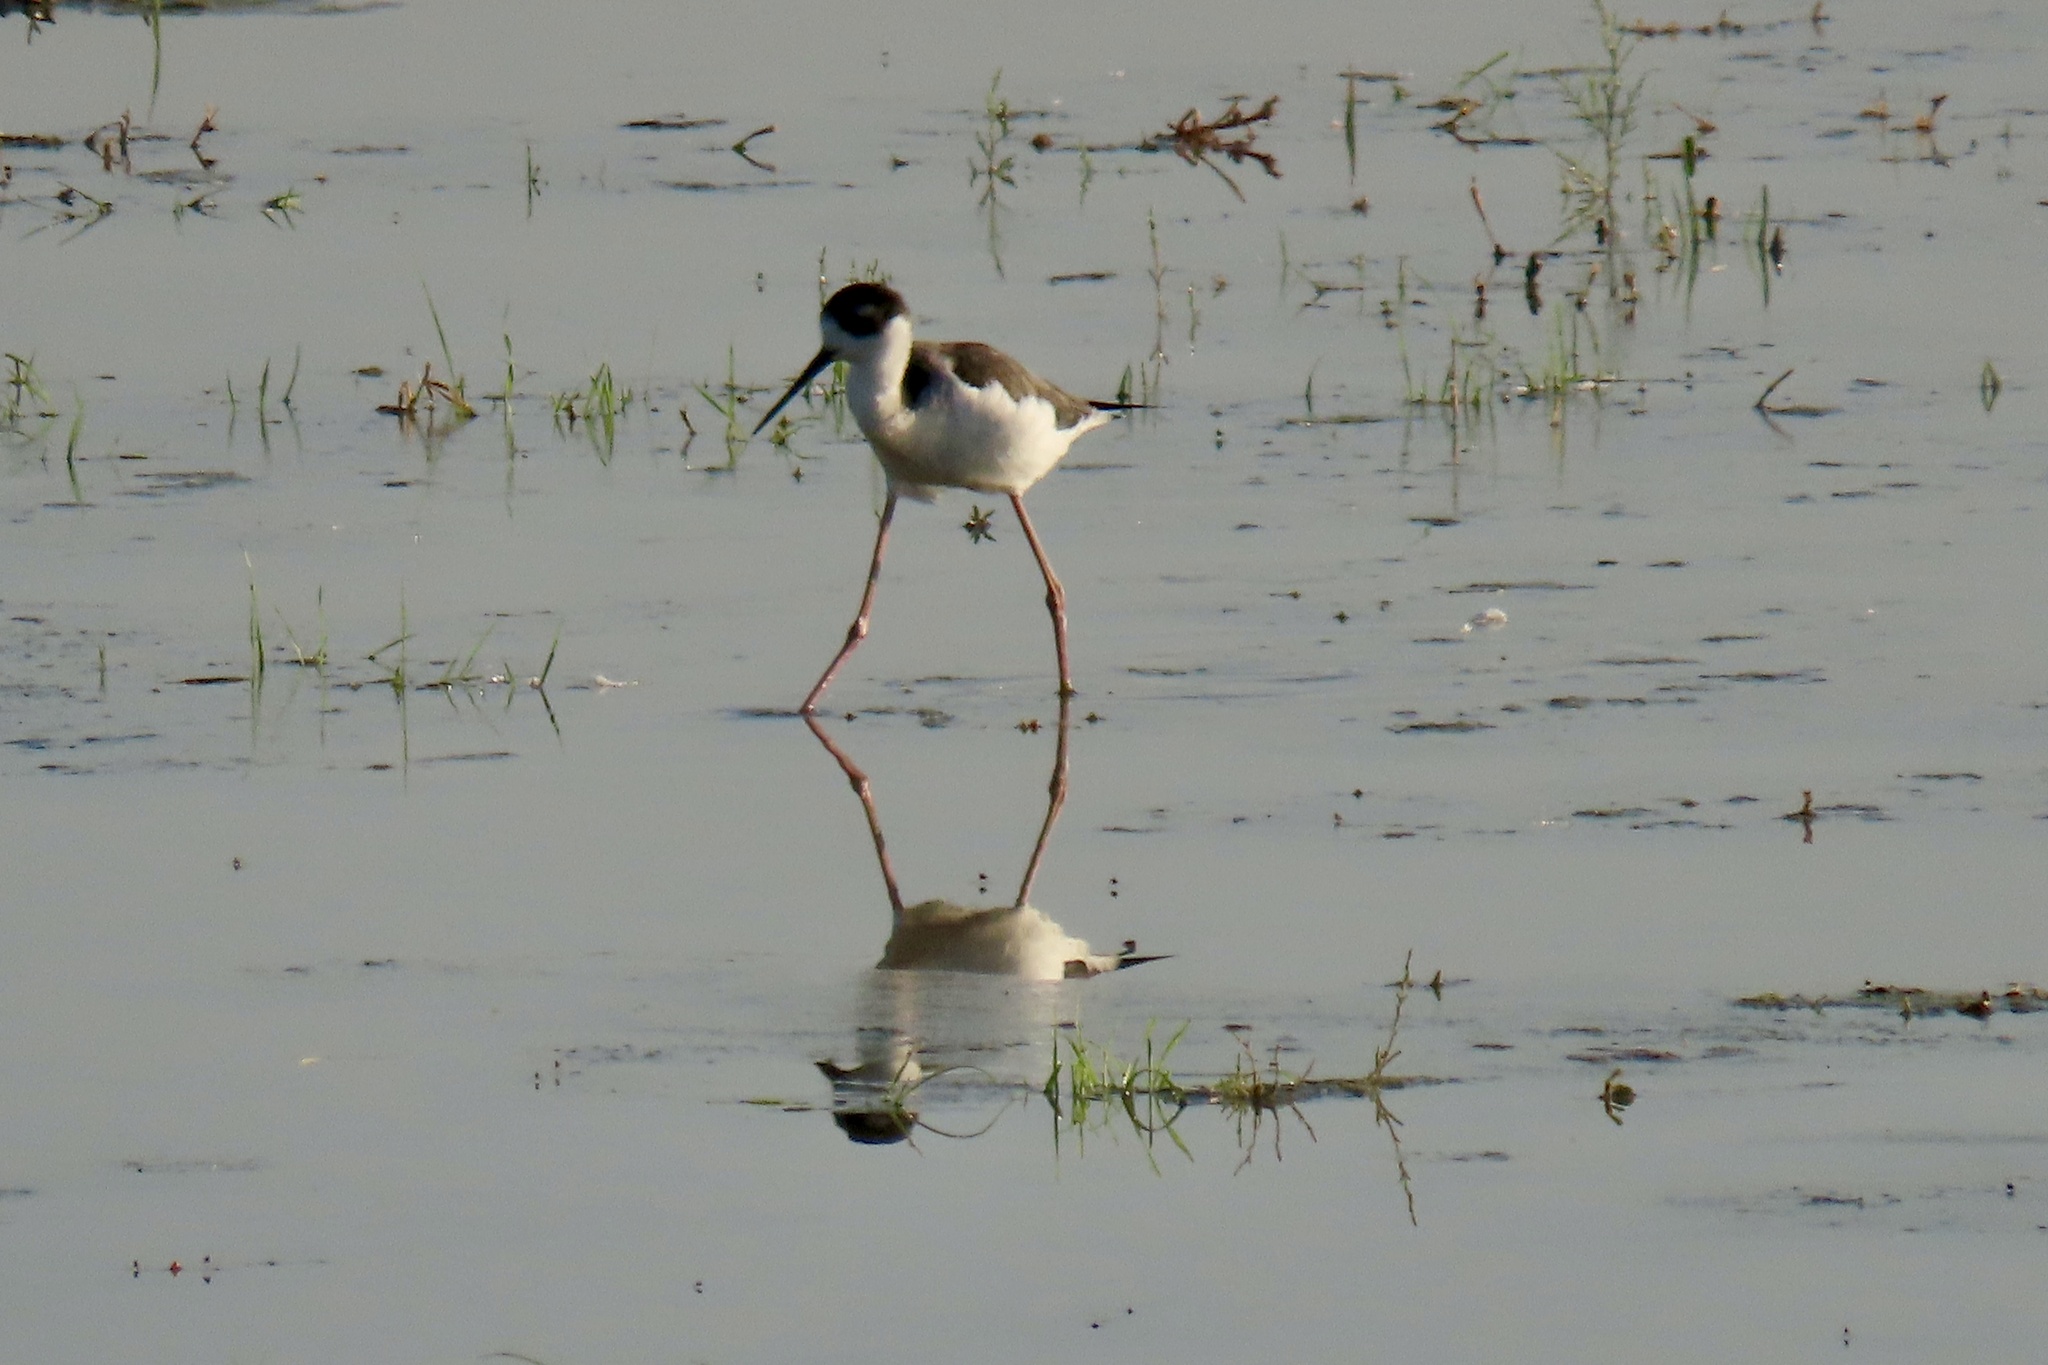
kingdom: Animalia
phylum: Chordata
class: Aves
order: Charadriiformes
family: Recurvirostridae
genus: Himantopus
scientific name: Himantopus mexicanus
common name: Black-necked stilt
